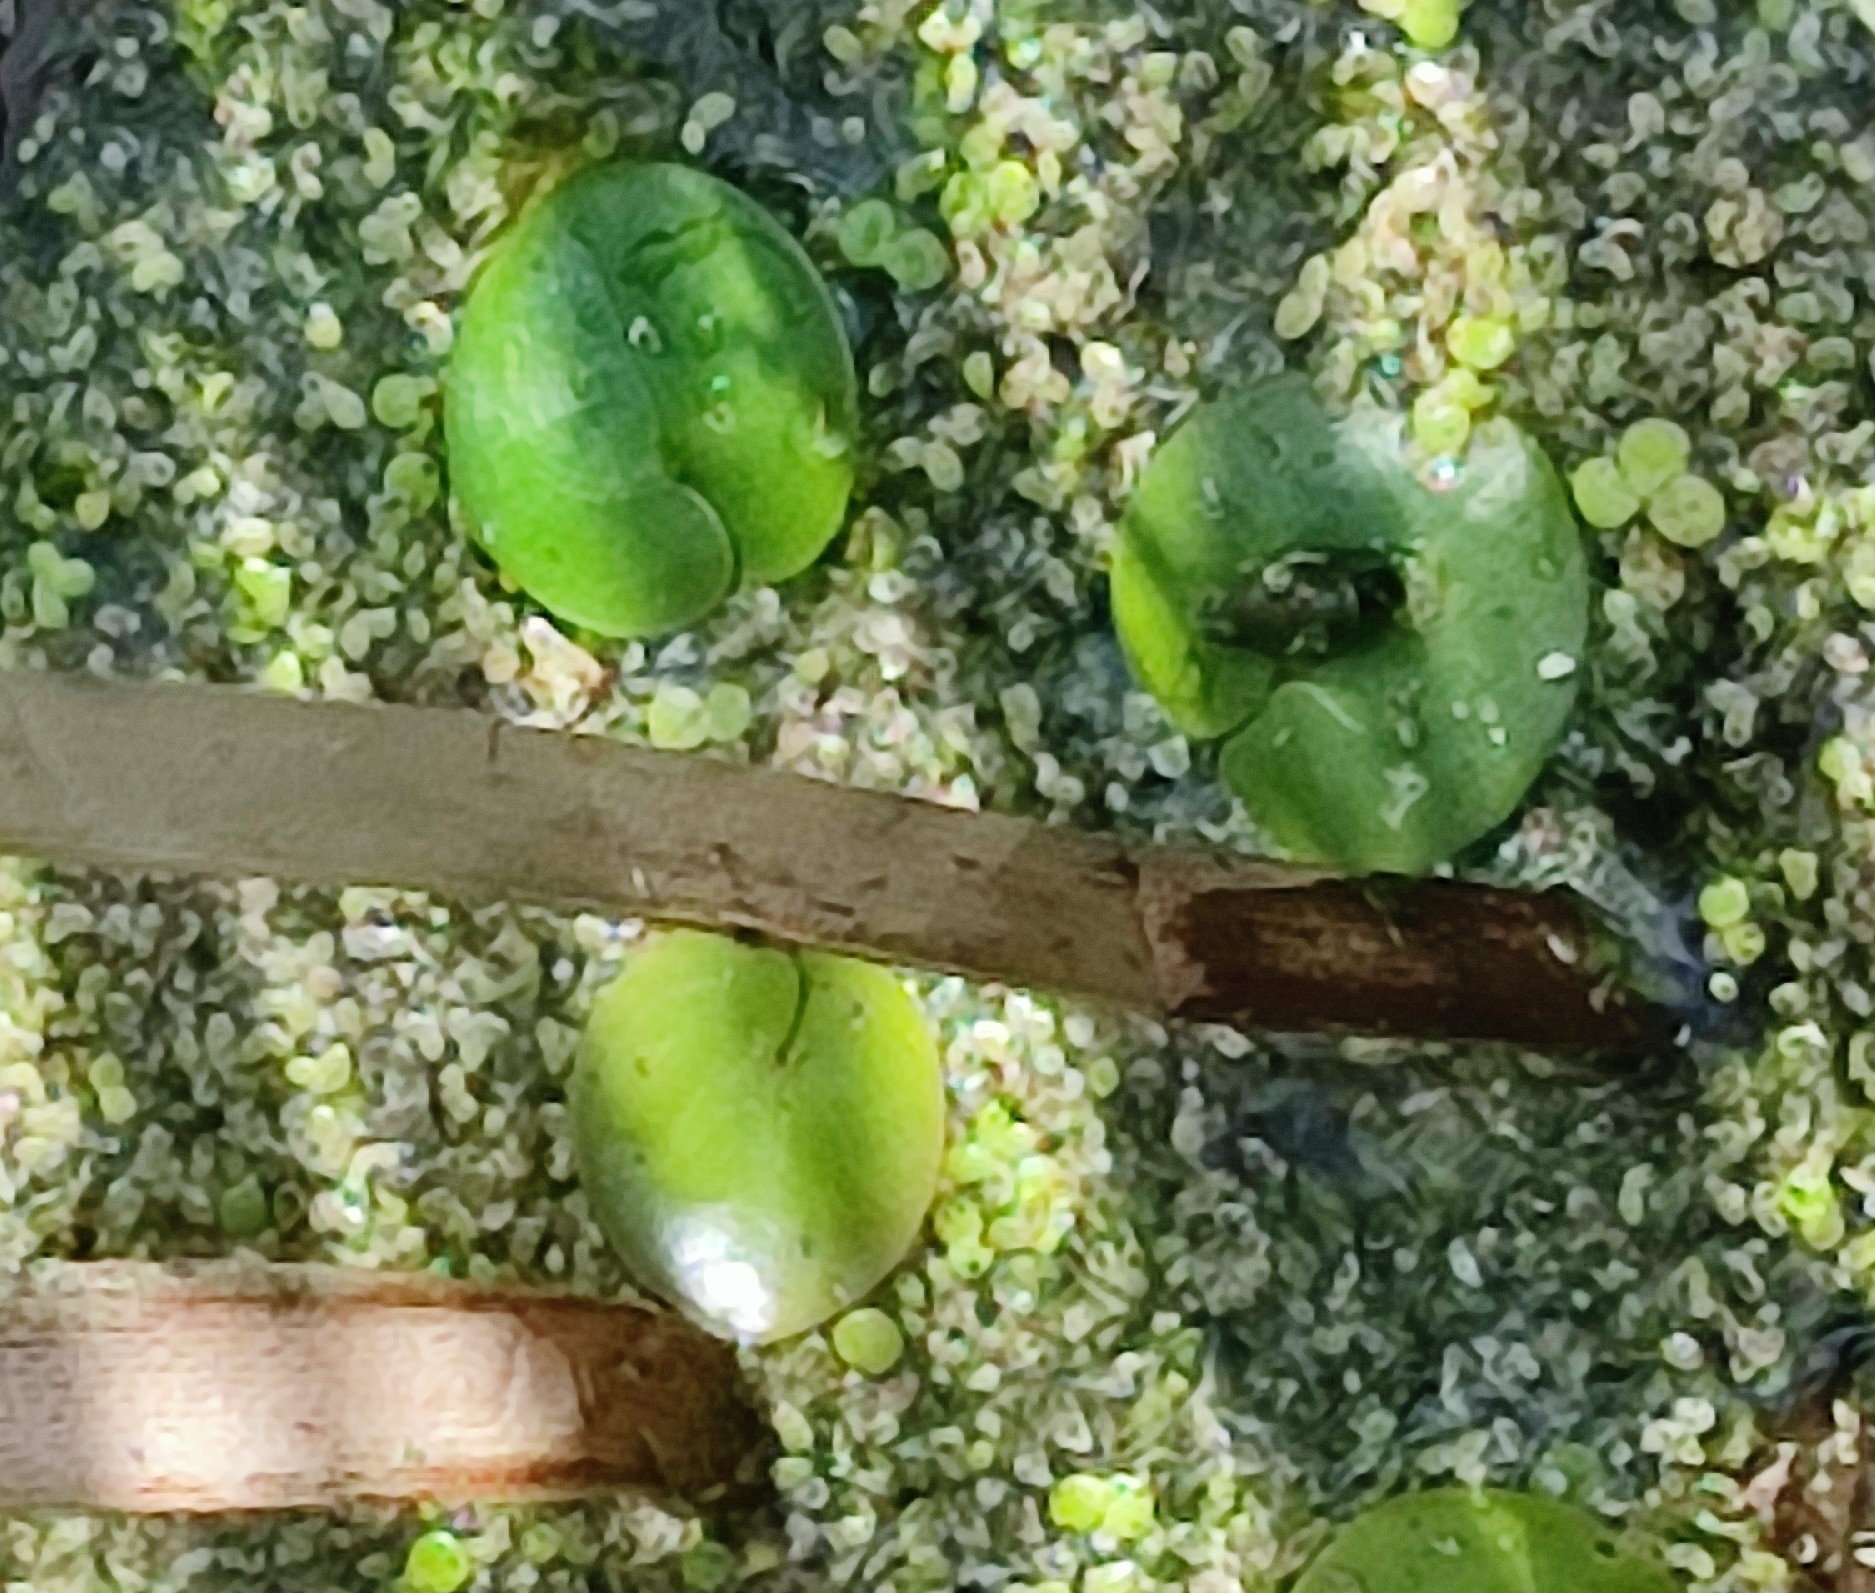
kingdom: Plantae
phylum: Tracheophyta
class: Liliopsida
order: Alismatales
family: Hydrocharitaceae
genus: Hydrocharis
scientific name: Hydrocharis morsus-ranae
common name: Frogbit
